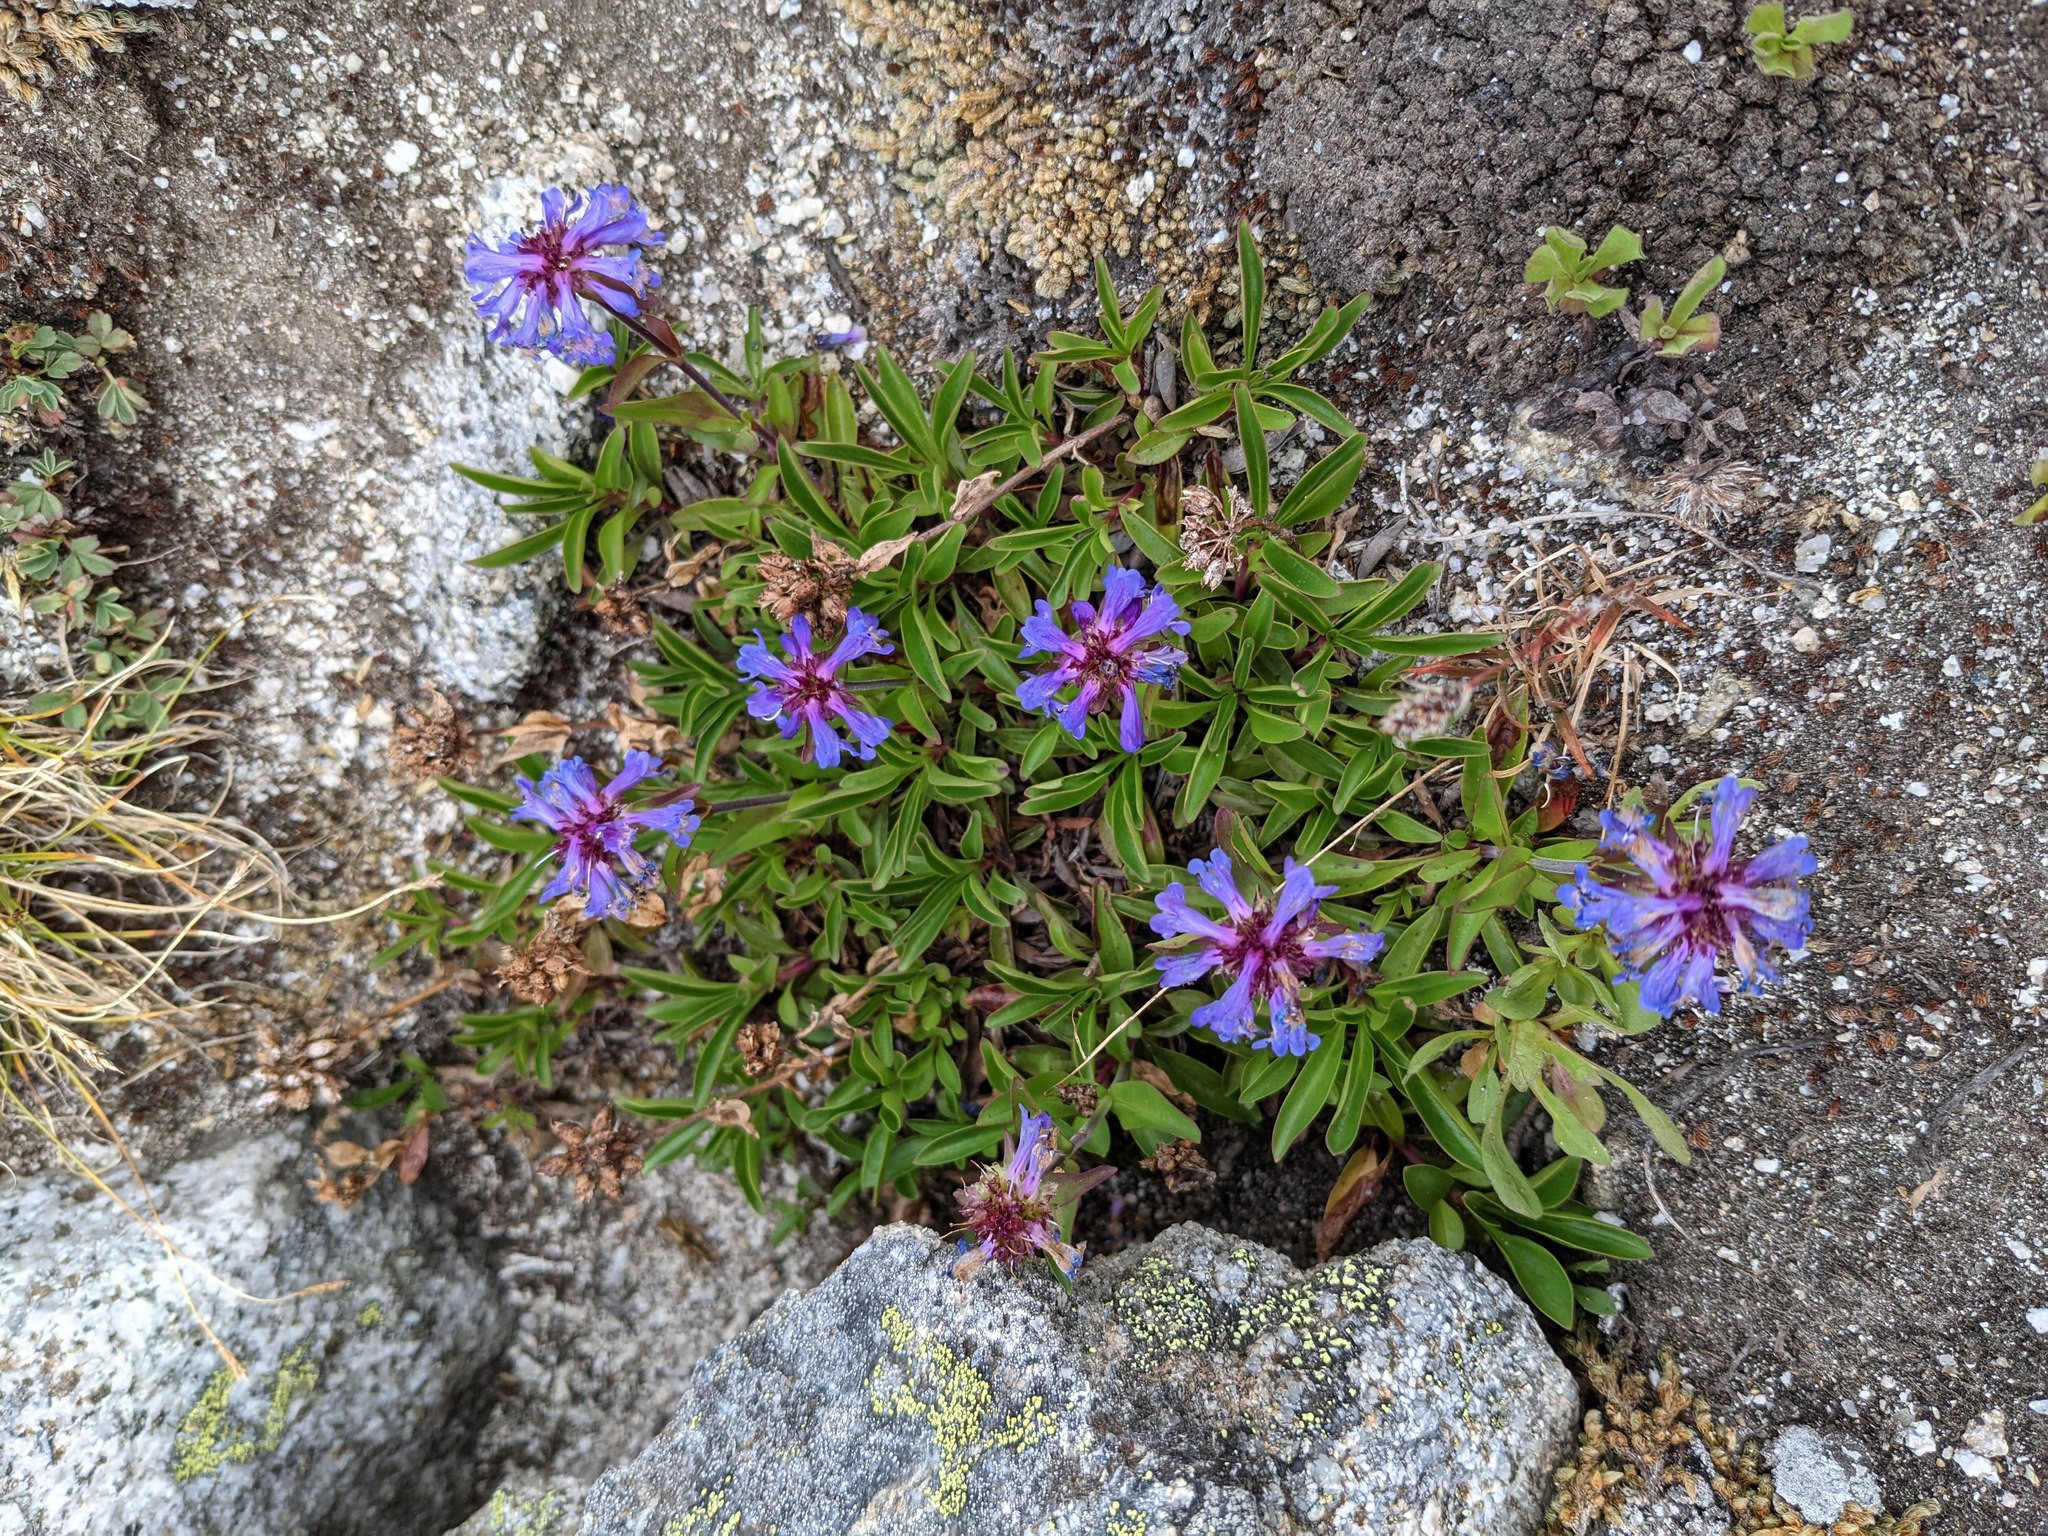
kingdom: Plantae
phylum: Tracheophyta
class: Magnoliopsida
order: Lamiales
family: Plantaginaceae
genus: Penstemon
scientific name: Penstemon procerus
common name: Small-flower penstemon
